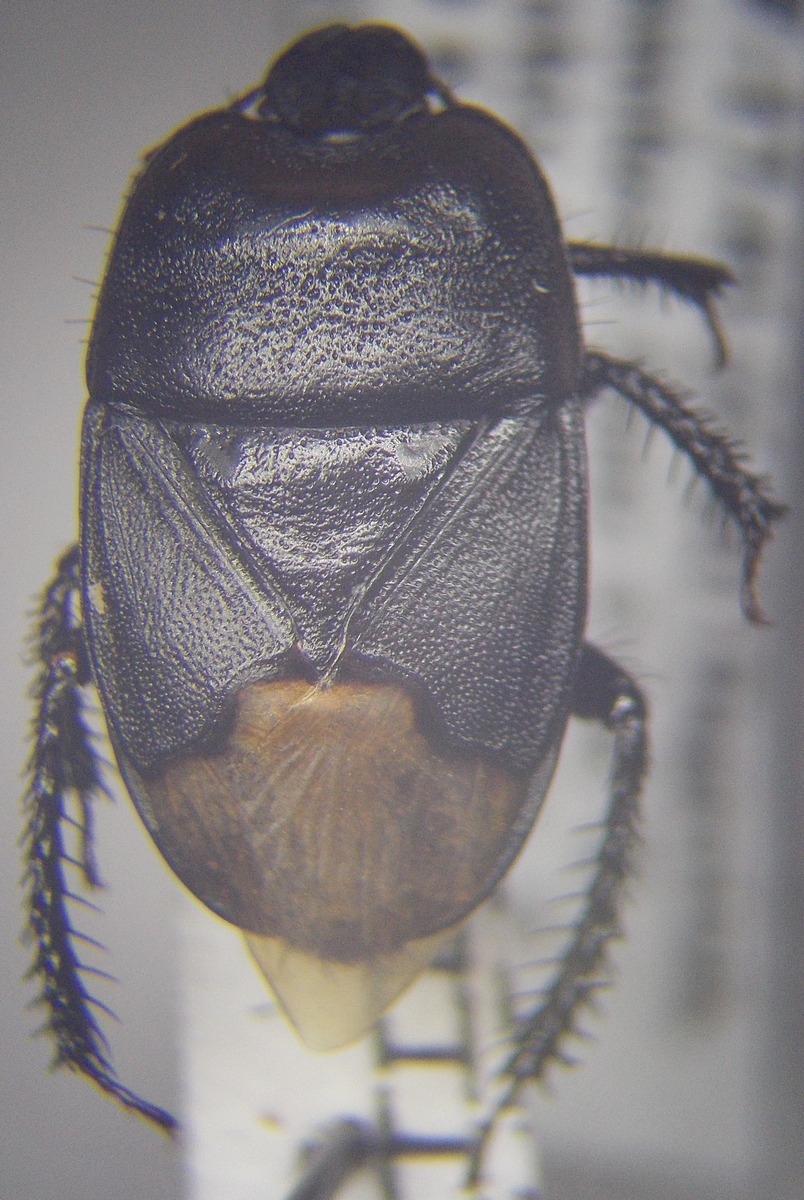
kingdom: Animalia
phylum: Arthropoda
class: Insecta
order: Hemiptera
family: Cydnidae
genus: Cydnus
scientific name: Cydnus aterrimus
